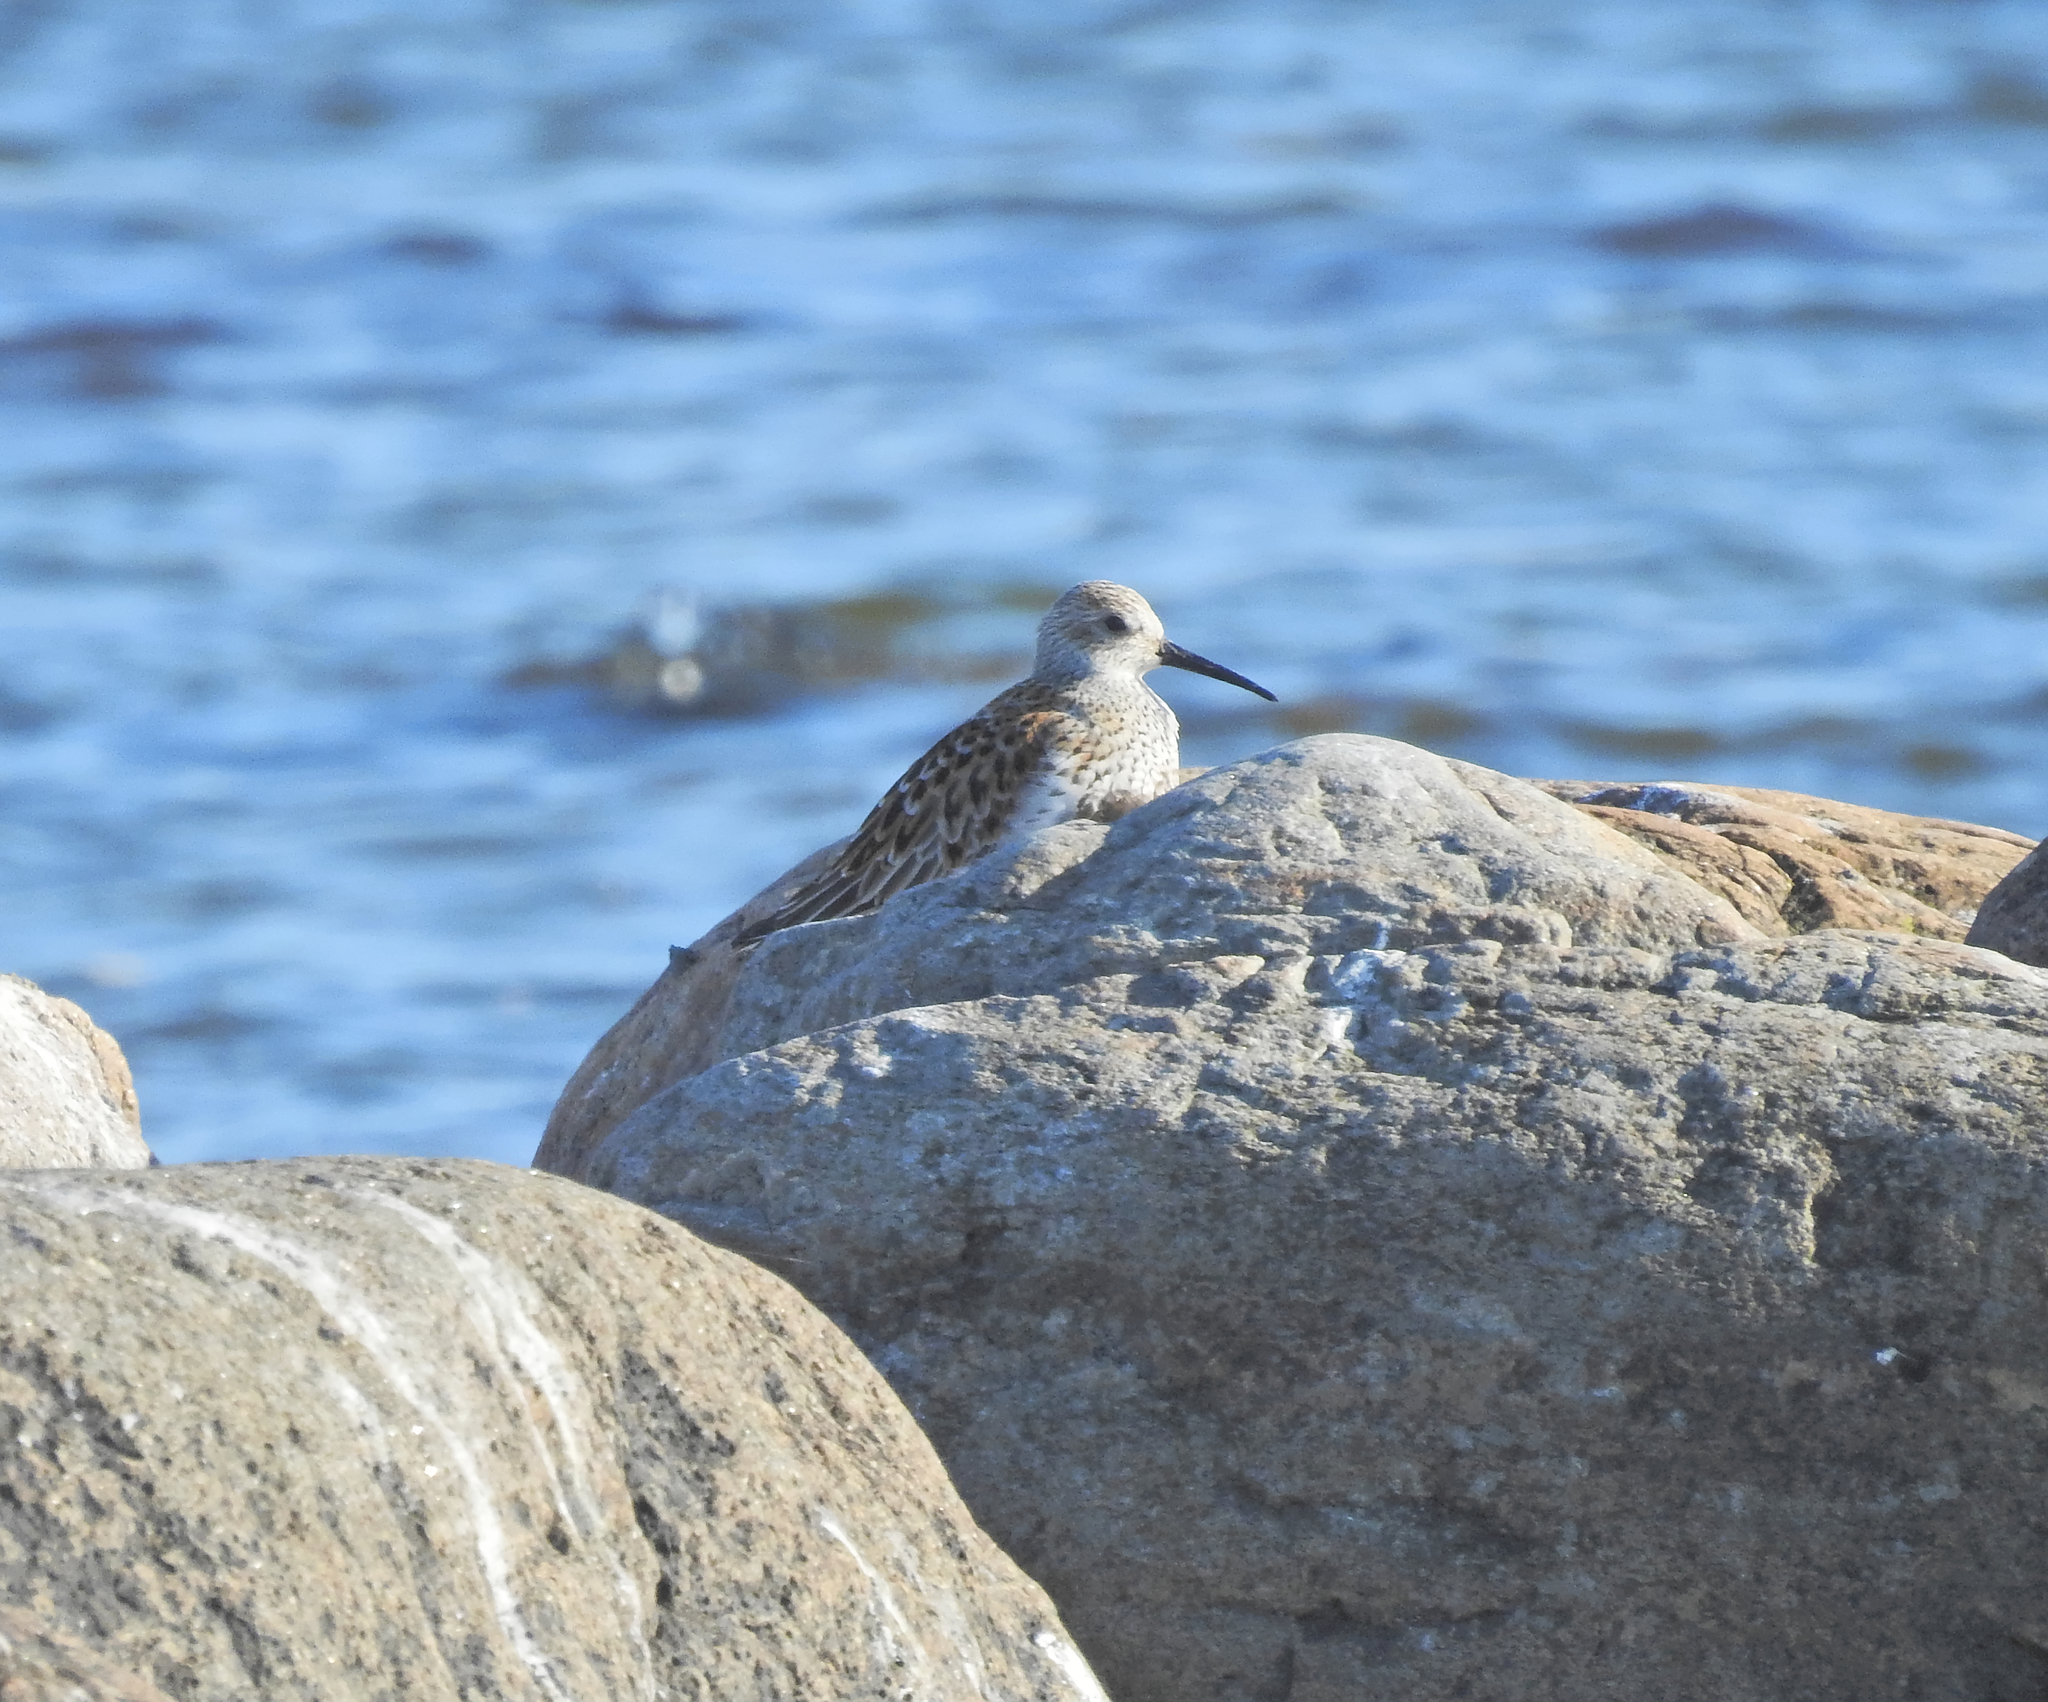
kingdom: Animalia
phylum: Chordata
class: Aves
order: Charadriiformes
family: Scolopacidae
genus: Calidris
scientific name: Calidris alpina
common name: Dunlin
